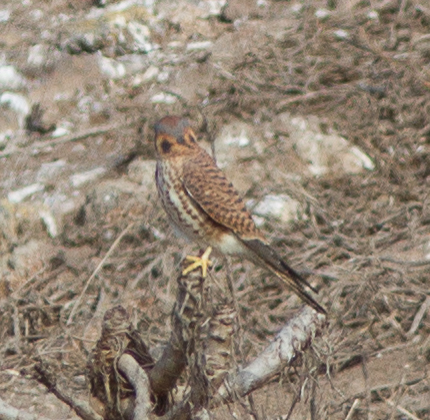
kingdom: Animalia
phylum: Chordata
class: Aves
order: Falconiformes
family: Falconidae
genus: Falco
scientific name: Falco sparverius
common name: American kestrel
